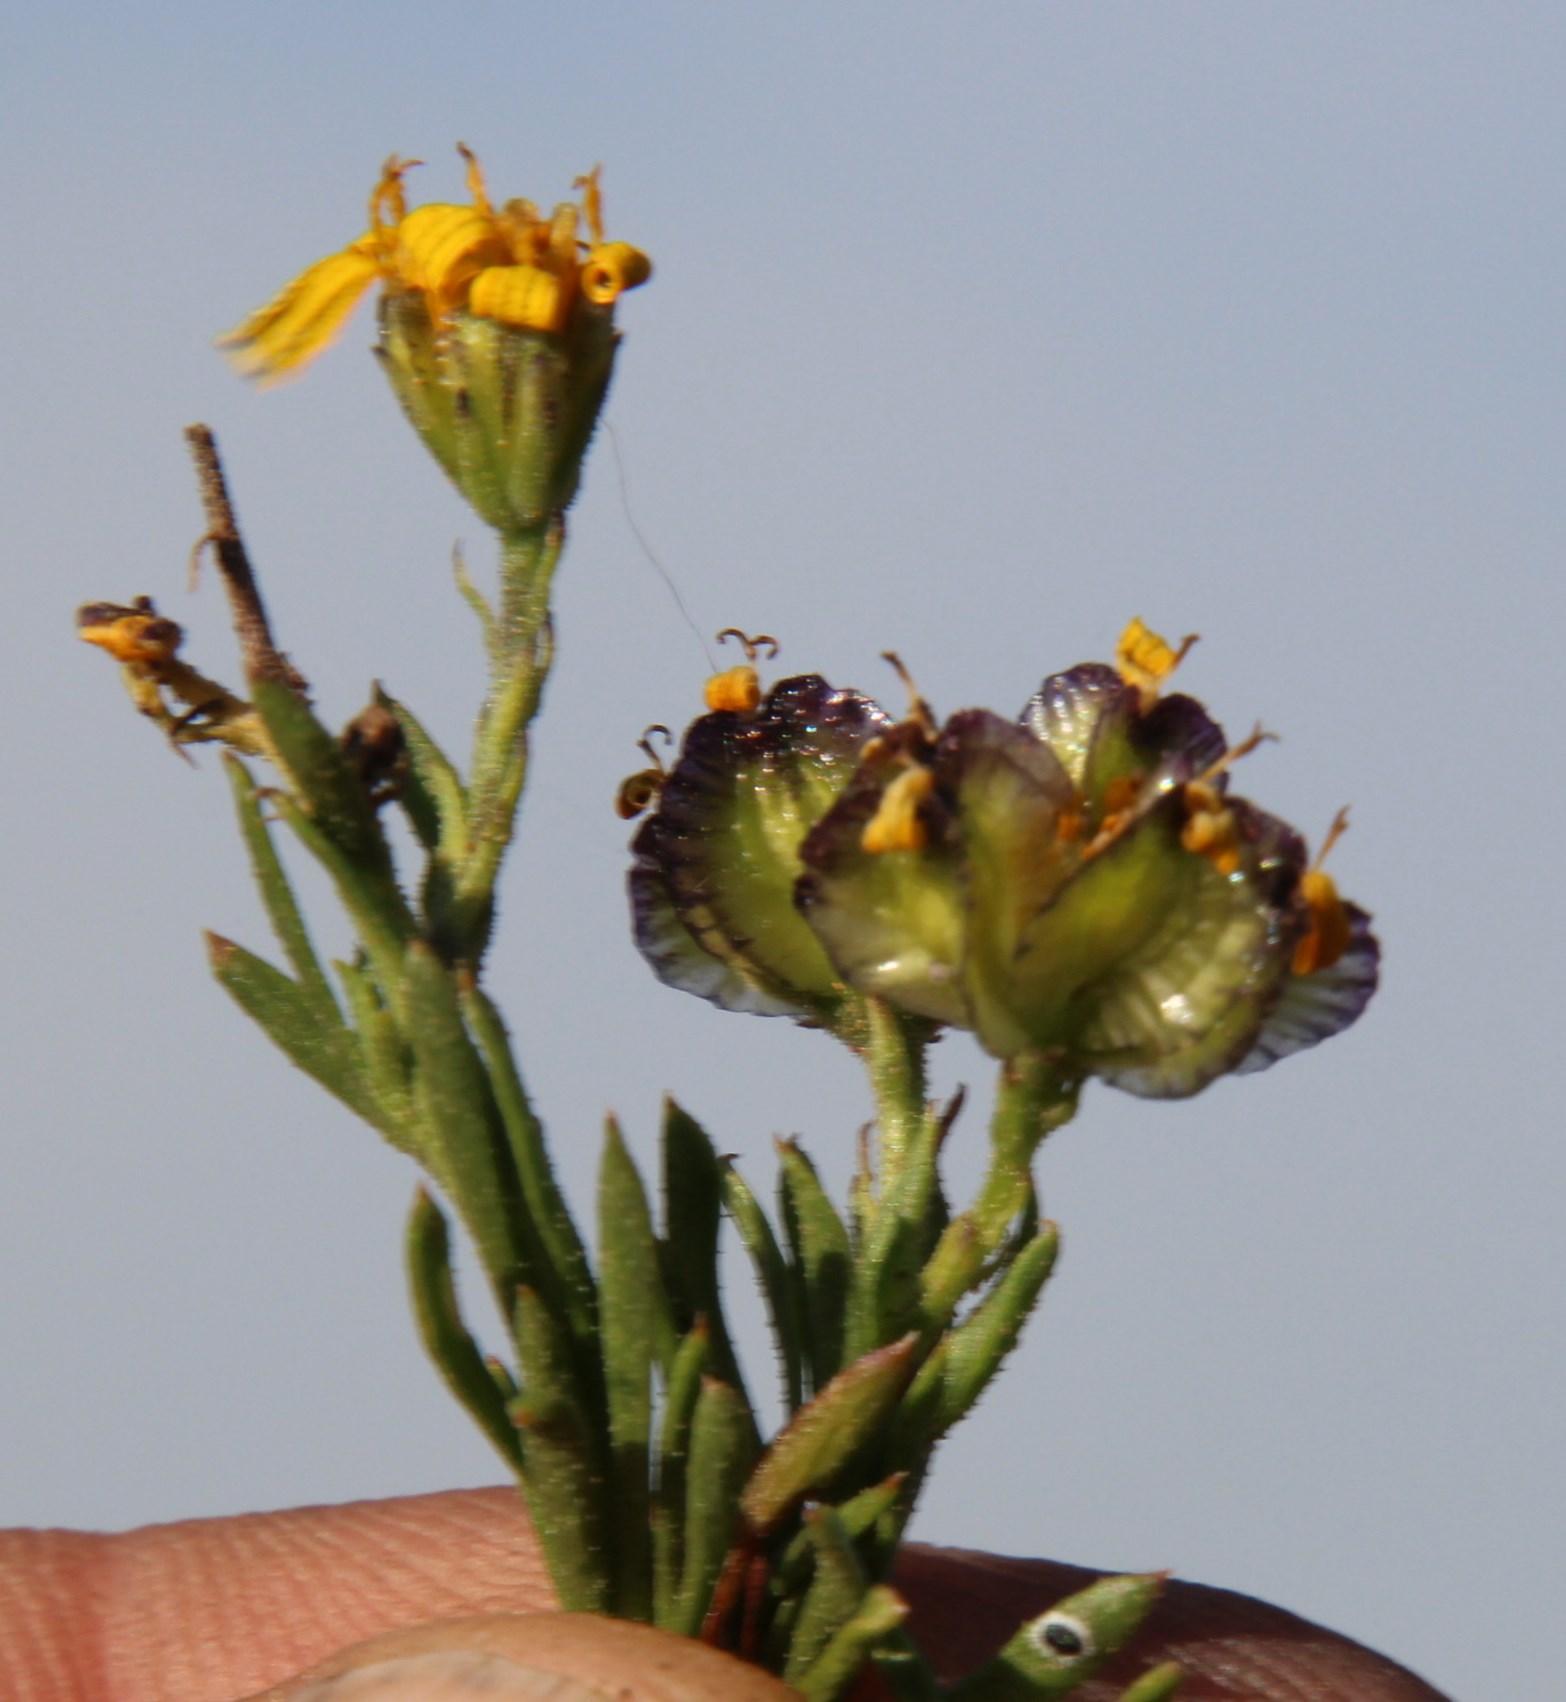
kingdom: Plantae
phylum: Tracheophyta
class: Magnoliopsida
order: Asterales
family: Asteraceae
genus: Osteospermum
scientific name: Osteospermum microphyllum
